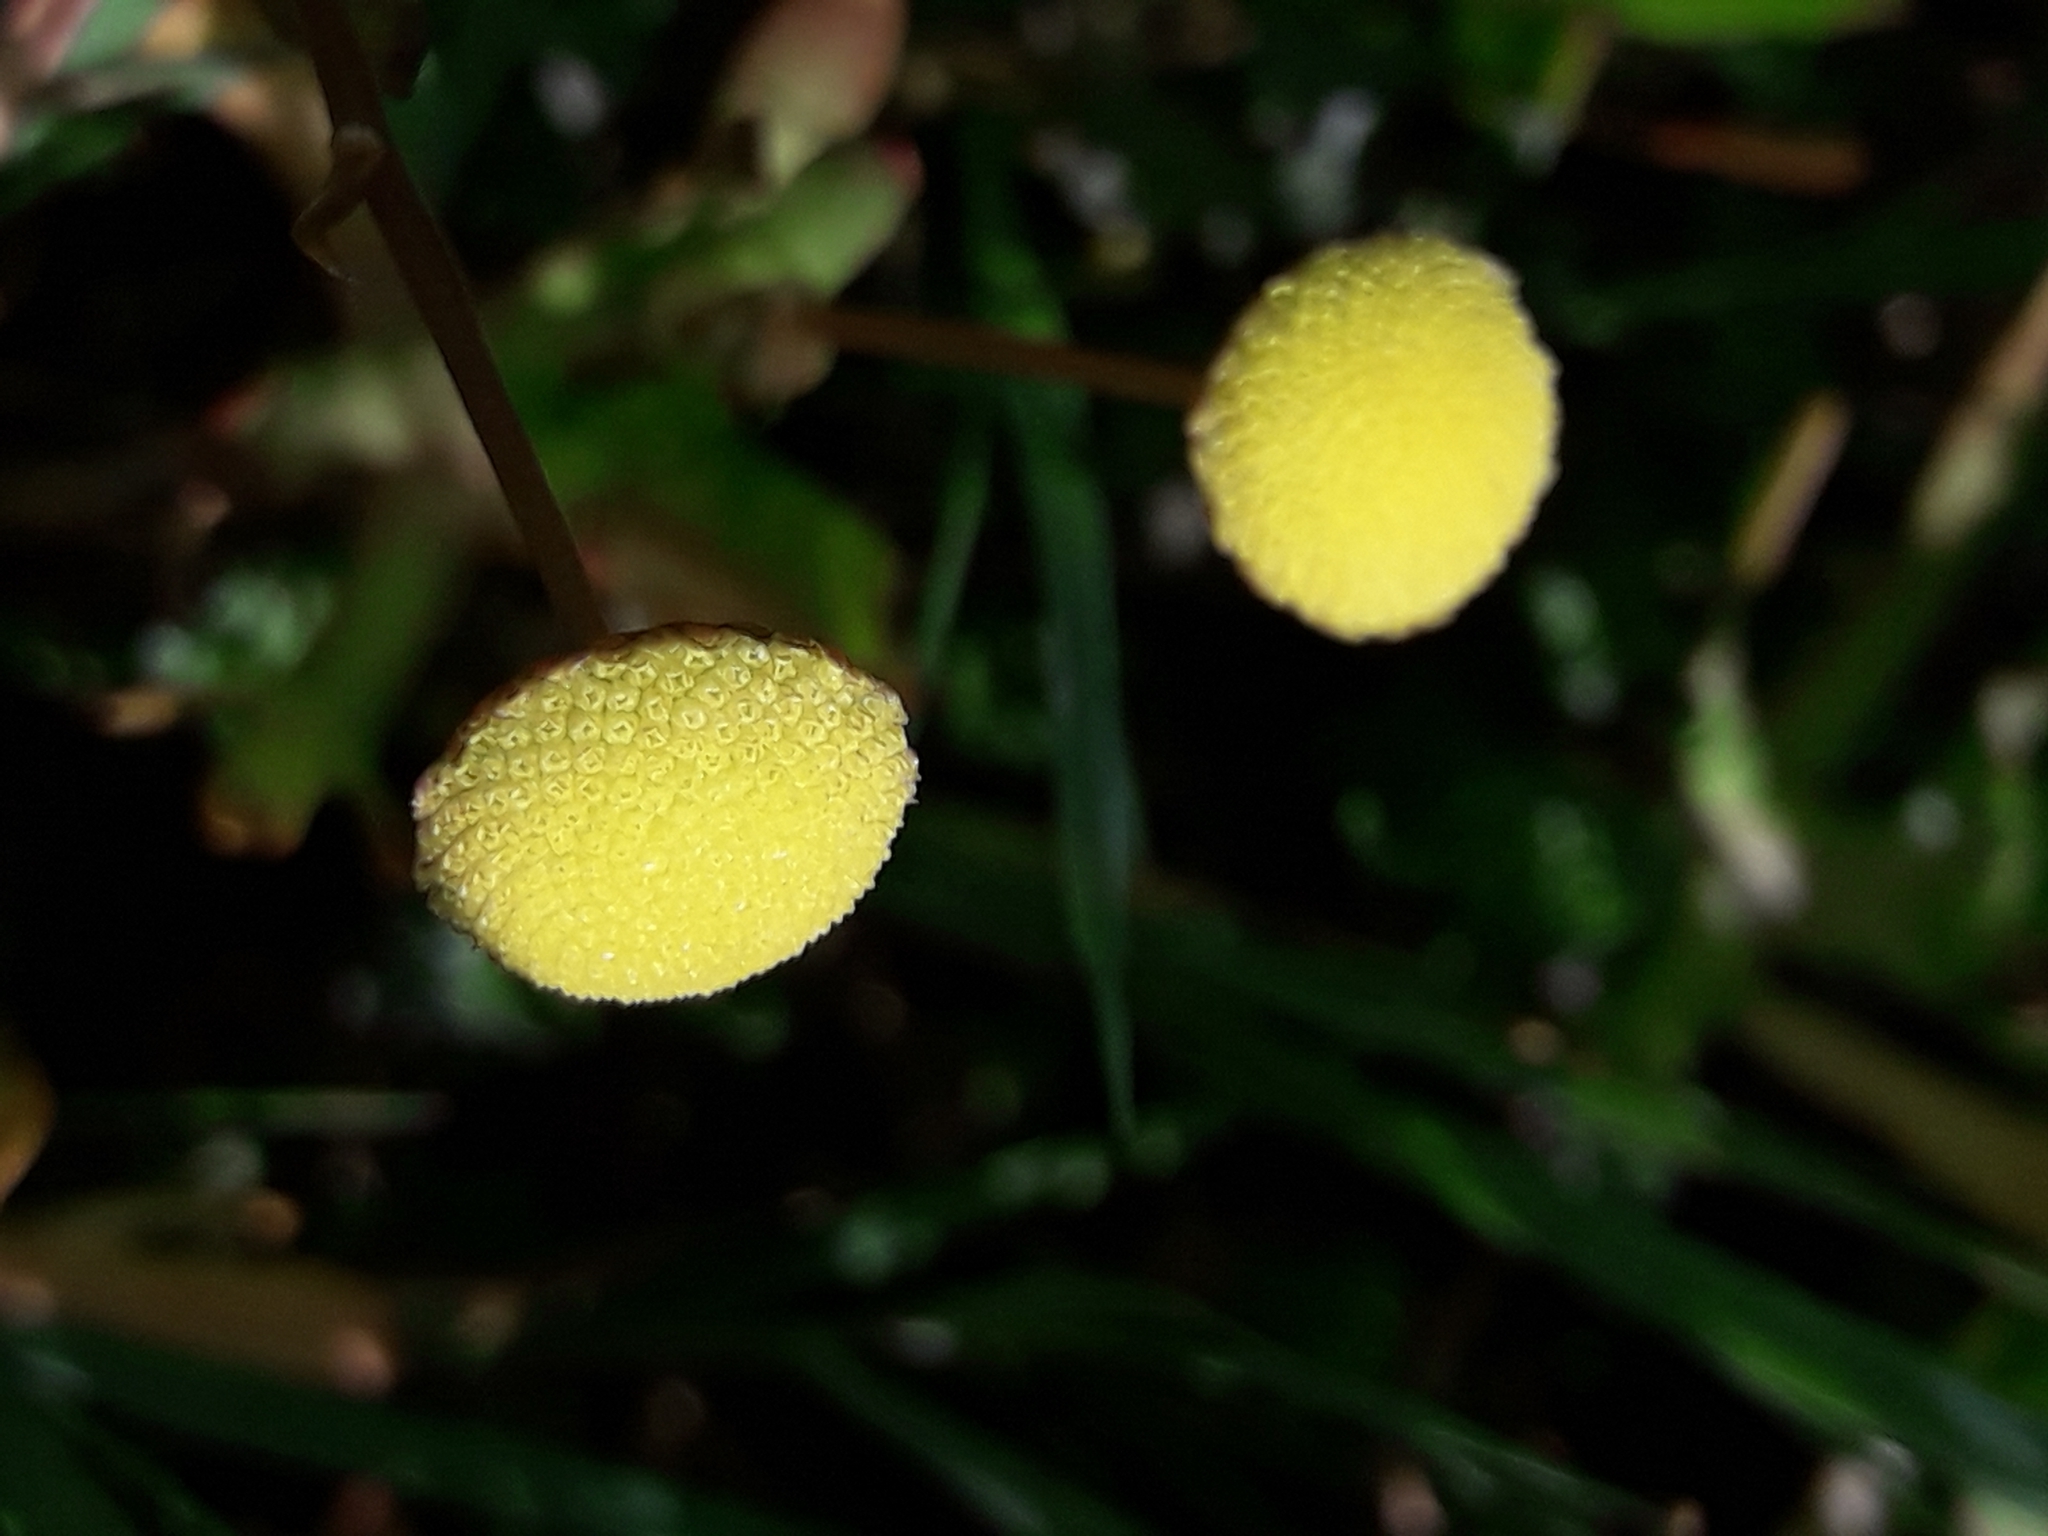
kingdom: Plantae
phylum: Tracheophyta
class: Magnoliopsida
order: Asterales
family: Asteraceae
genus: Cotula
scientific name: Cotula coronopifolia
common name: Buttonweed
